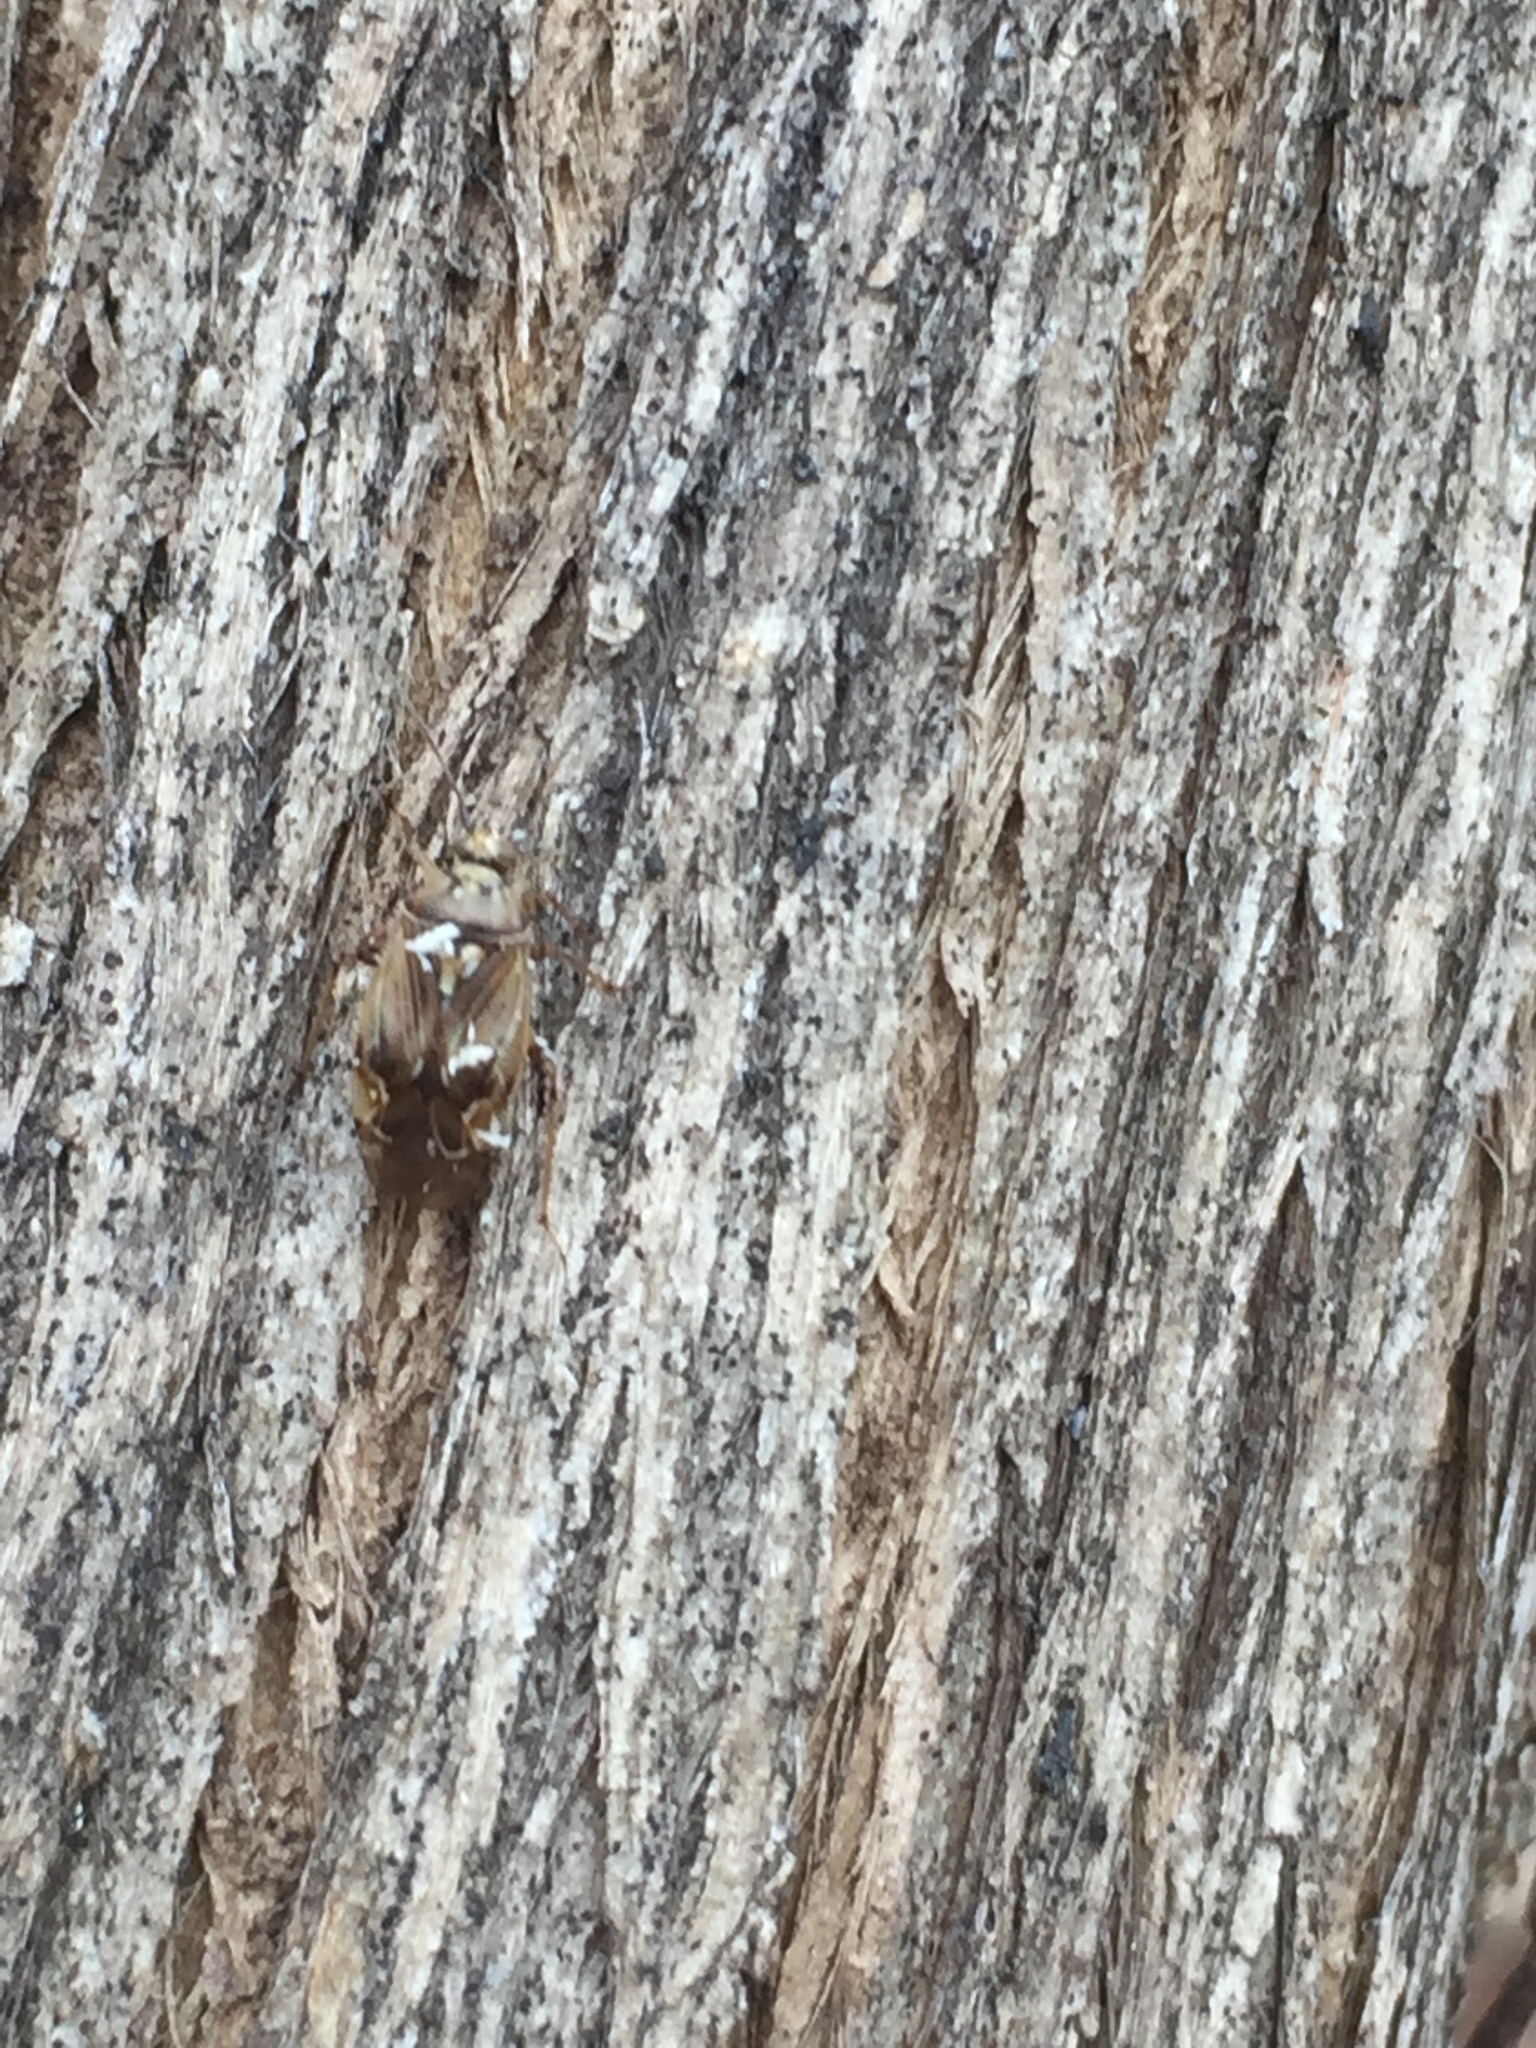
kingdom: Animalia
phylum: Arthropoda
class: Insecta
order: Hemiptera
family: Miridae
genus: Lygus
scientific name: Lygus lineolaris
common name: North american tarnished plant bug
